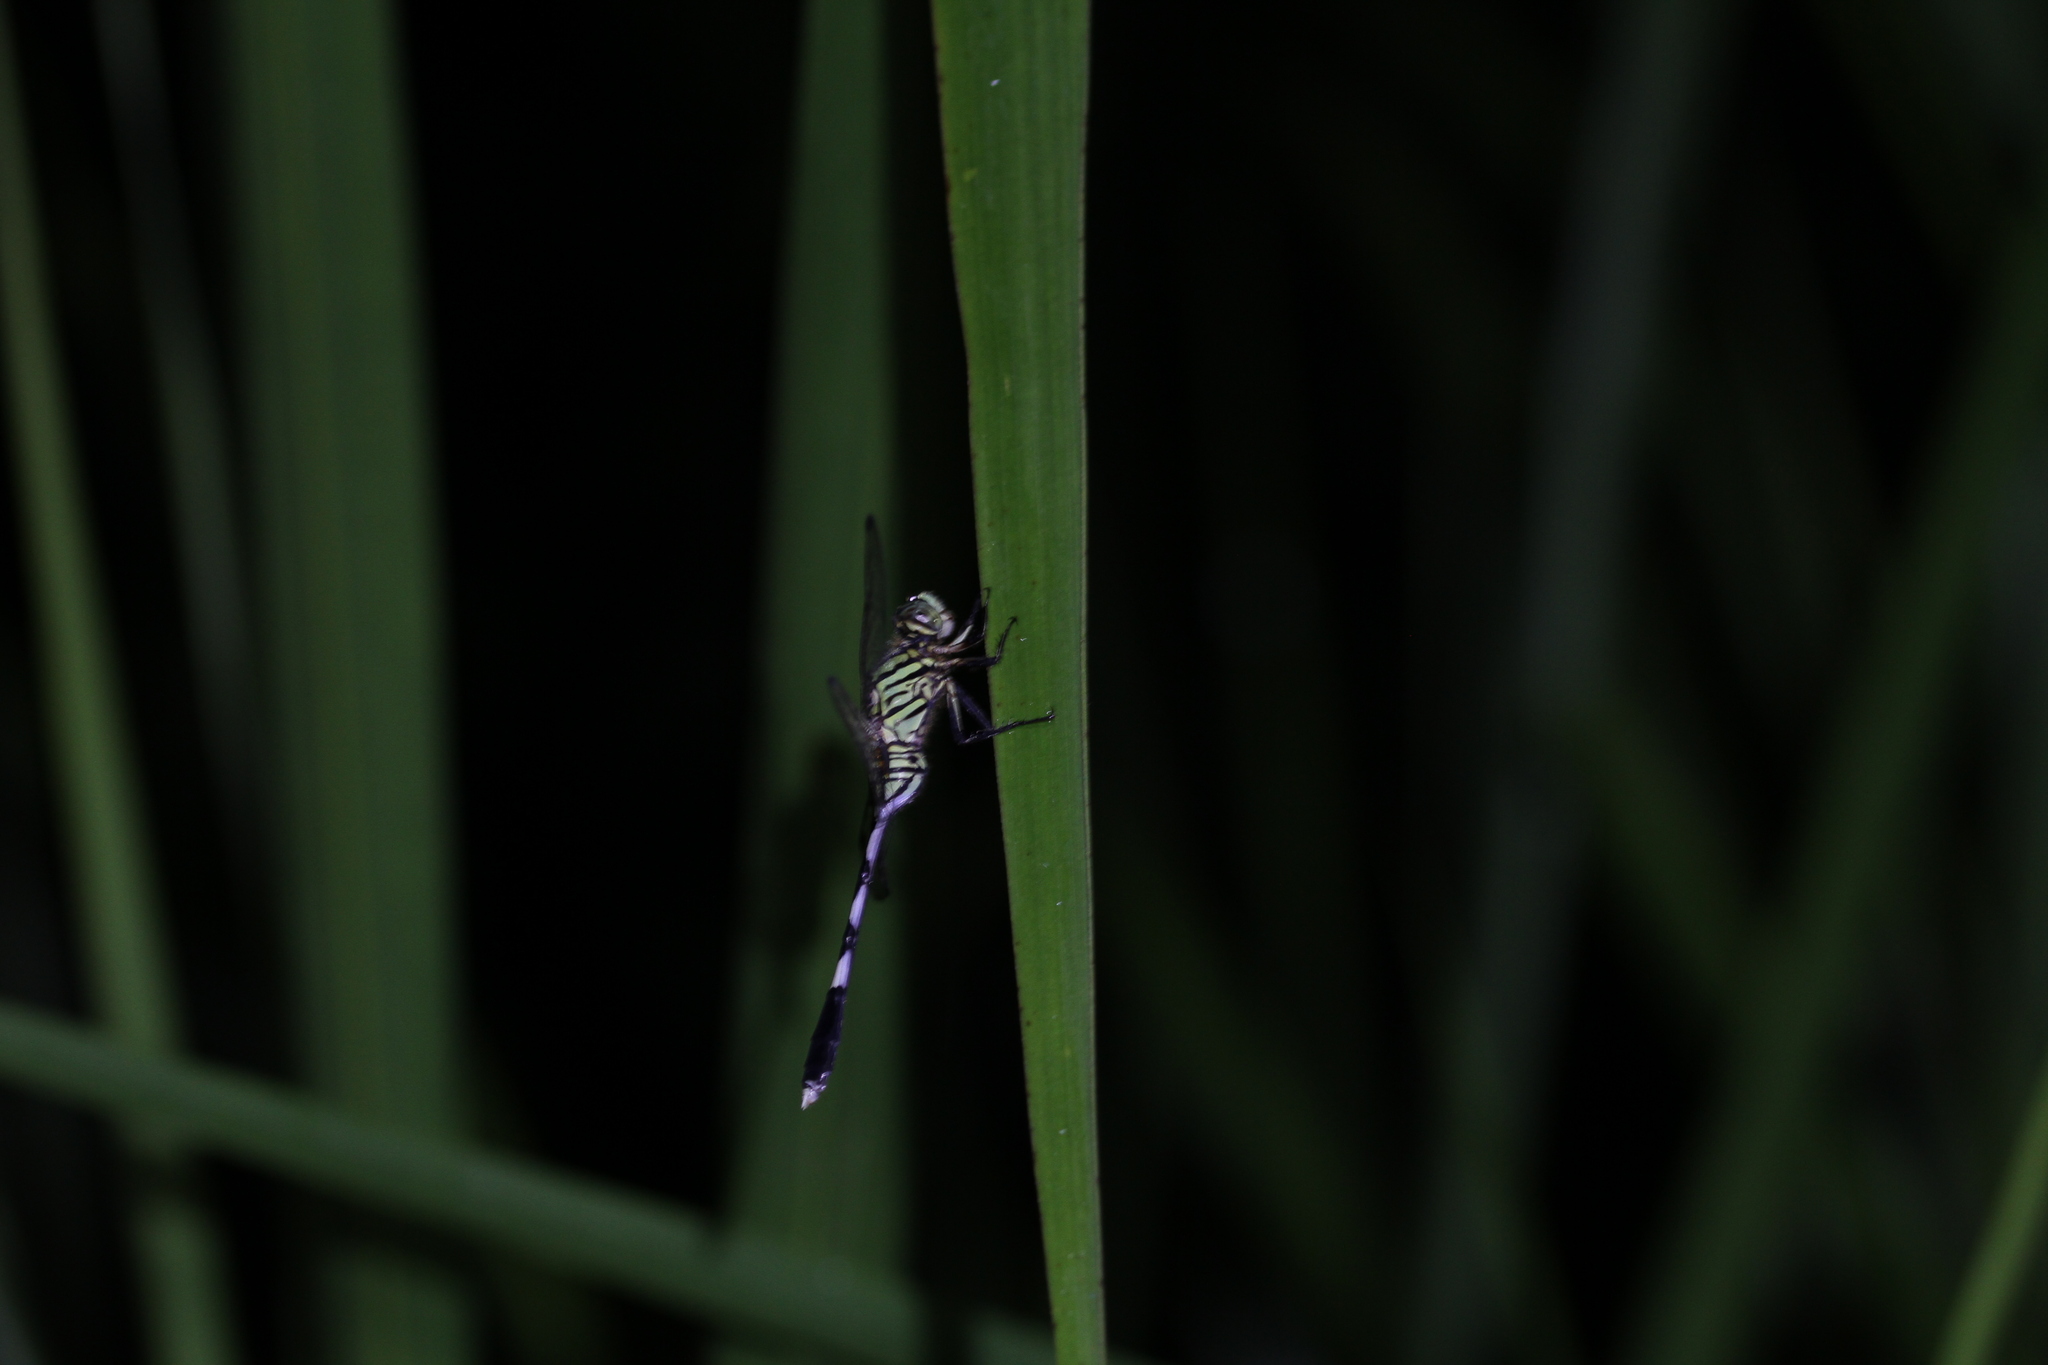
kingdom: Animalia
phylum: Arthropoda
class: Insecta
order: Odonata
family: Libellulidae
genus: Orthetrum
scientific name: Orthetrum sabina
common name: Slender skimmer
